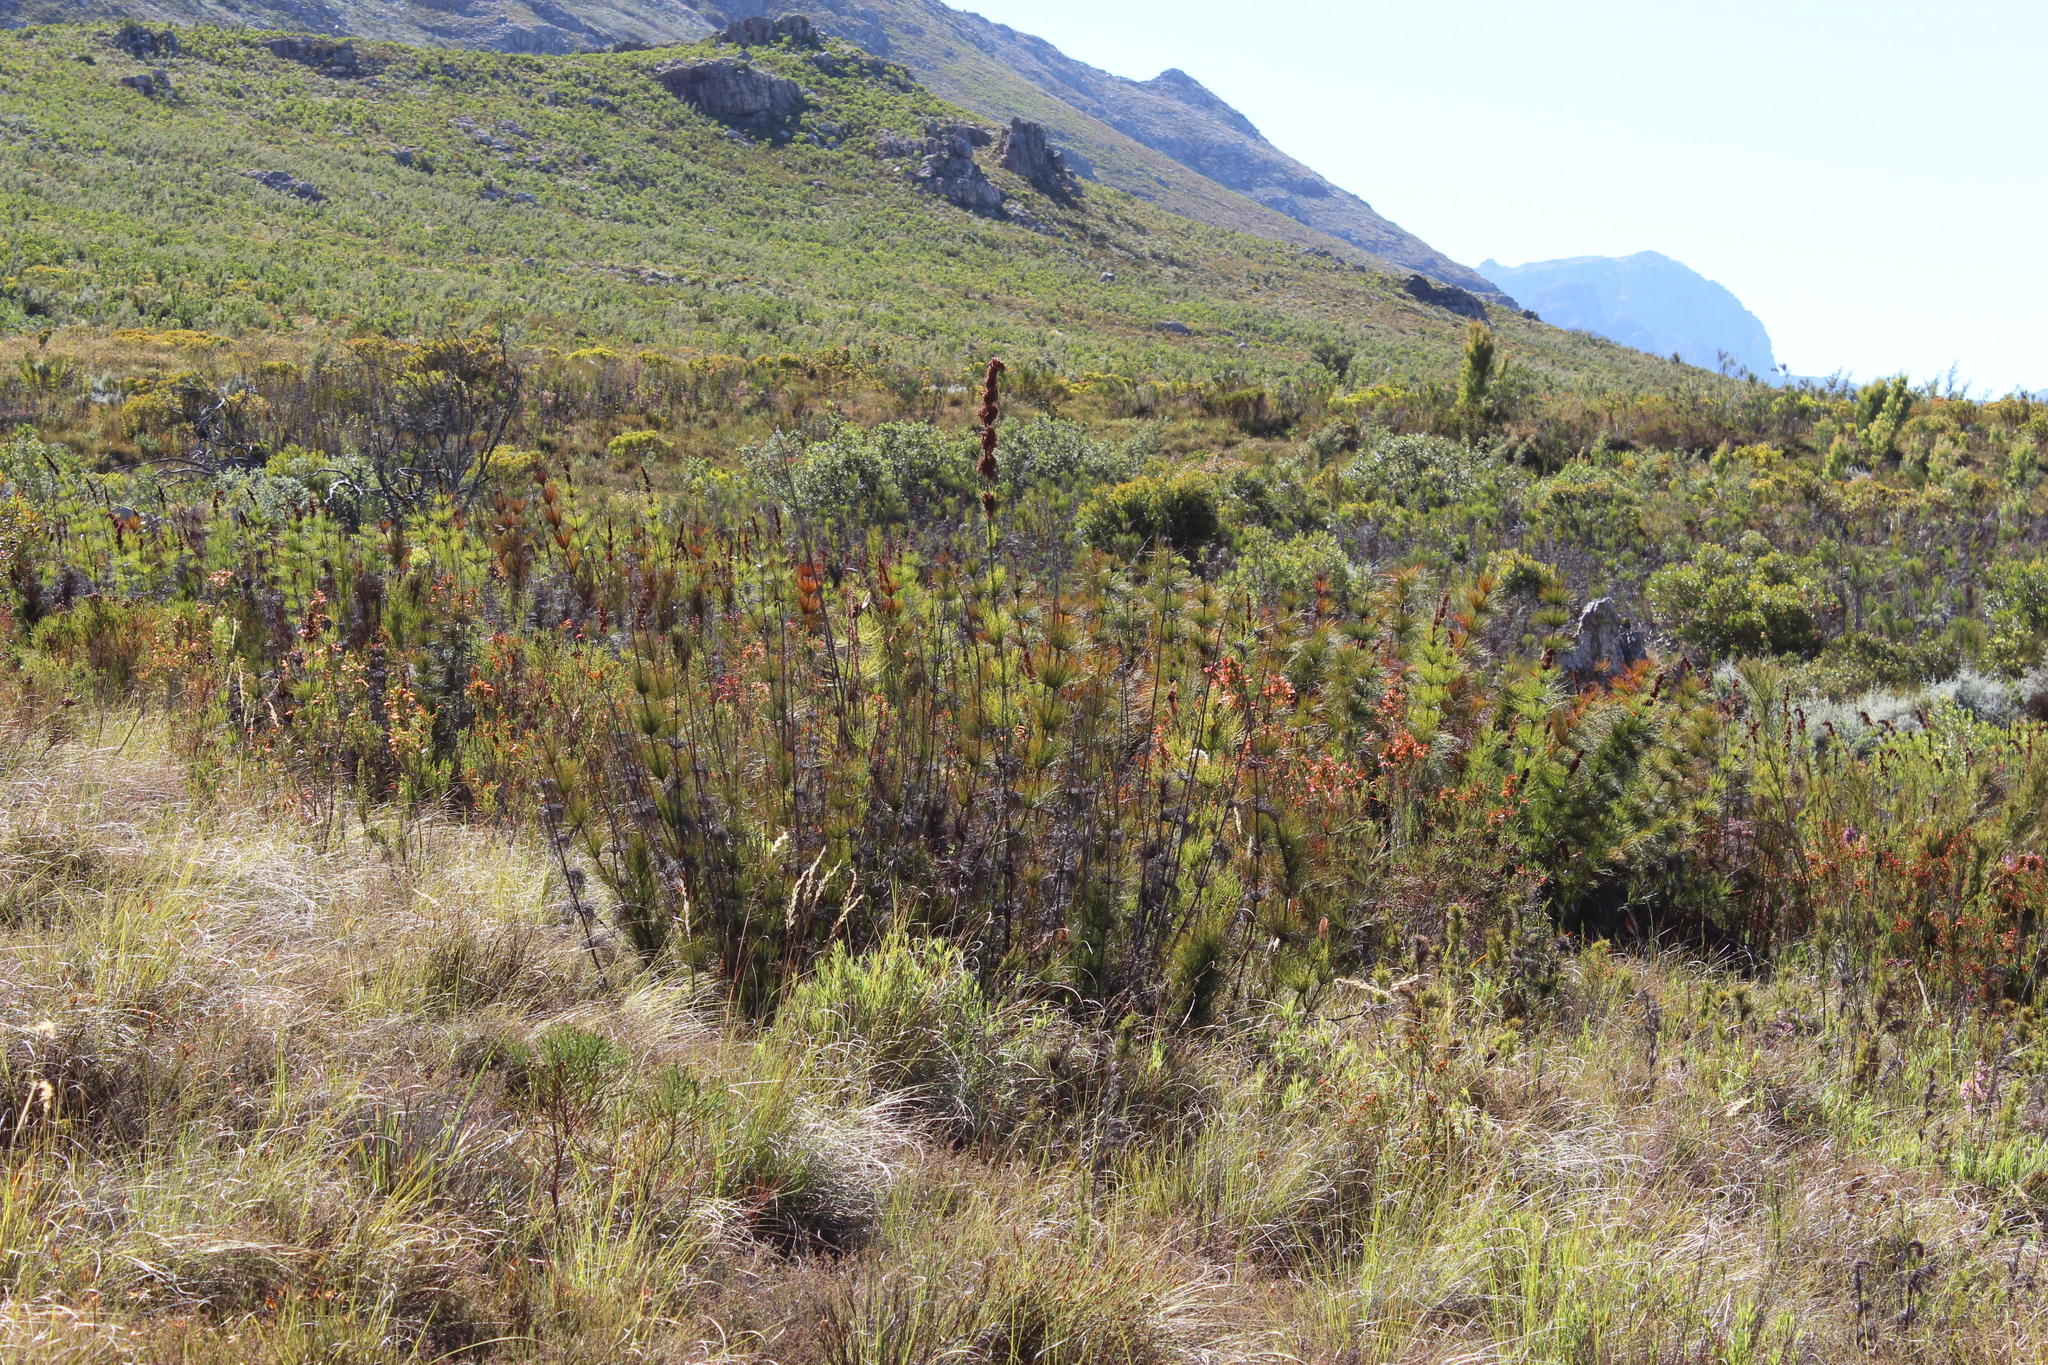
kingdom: Plantae
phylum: Tracheophyta
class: Magnoliopsida
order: Ericales
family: Ericaceae
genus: Erica
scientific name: Erica curviflora
